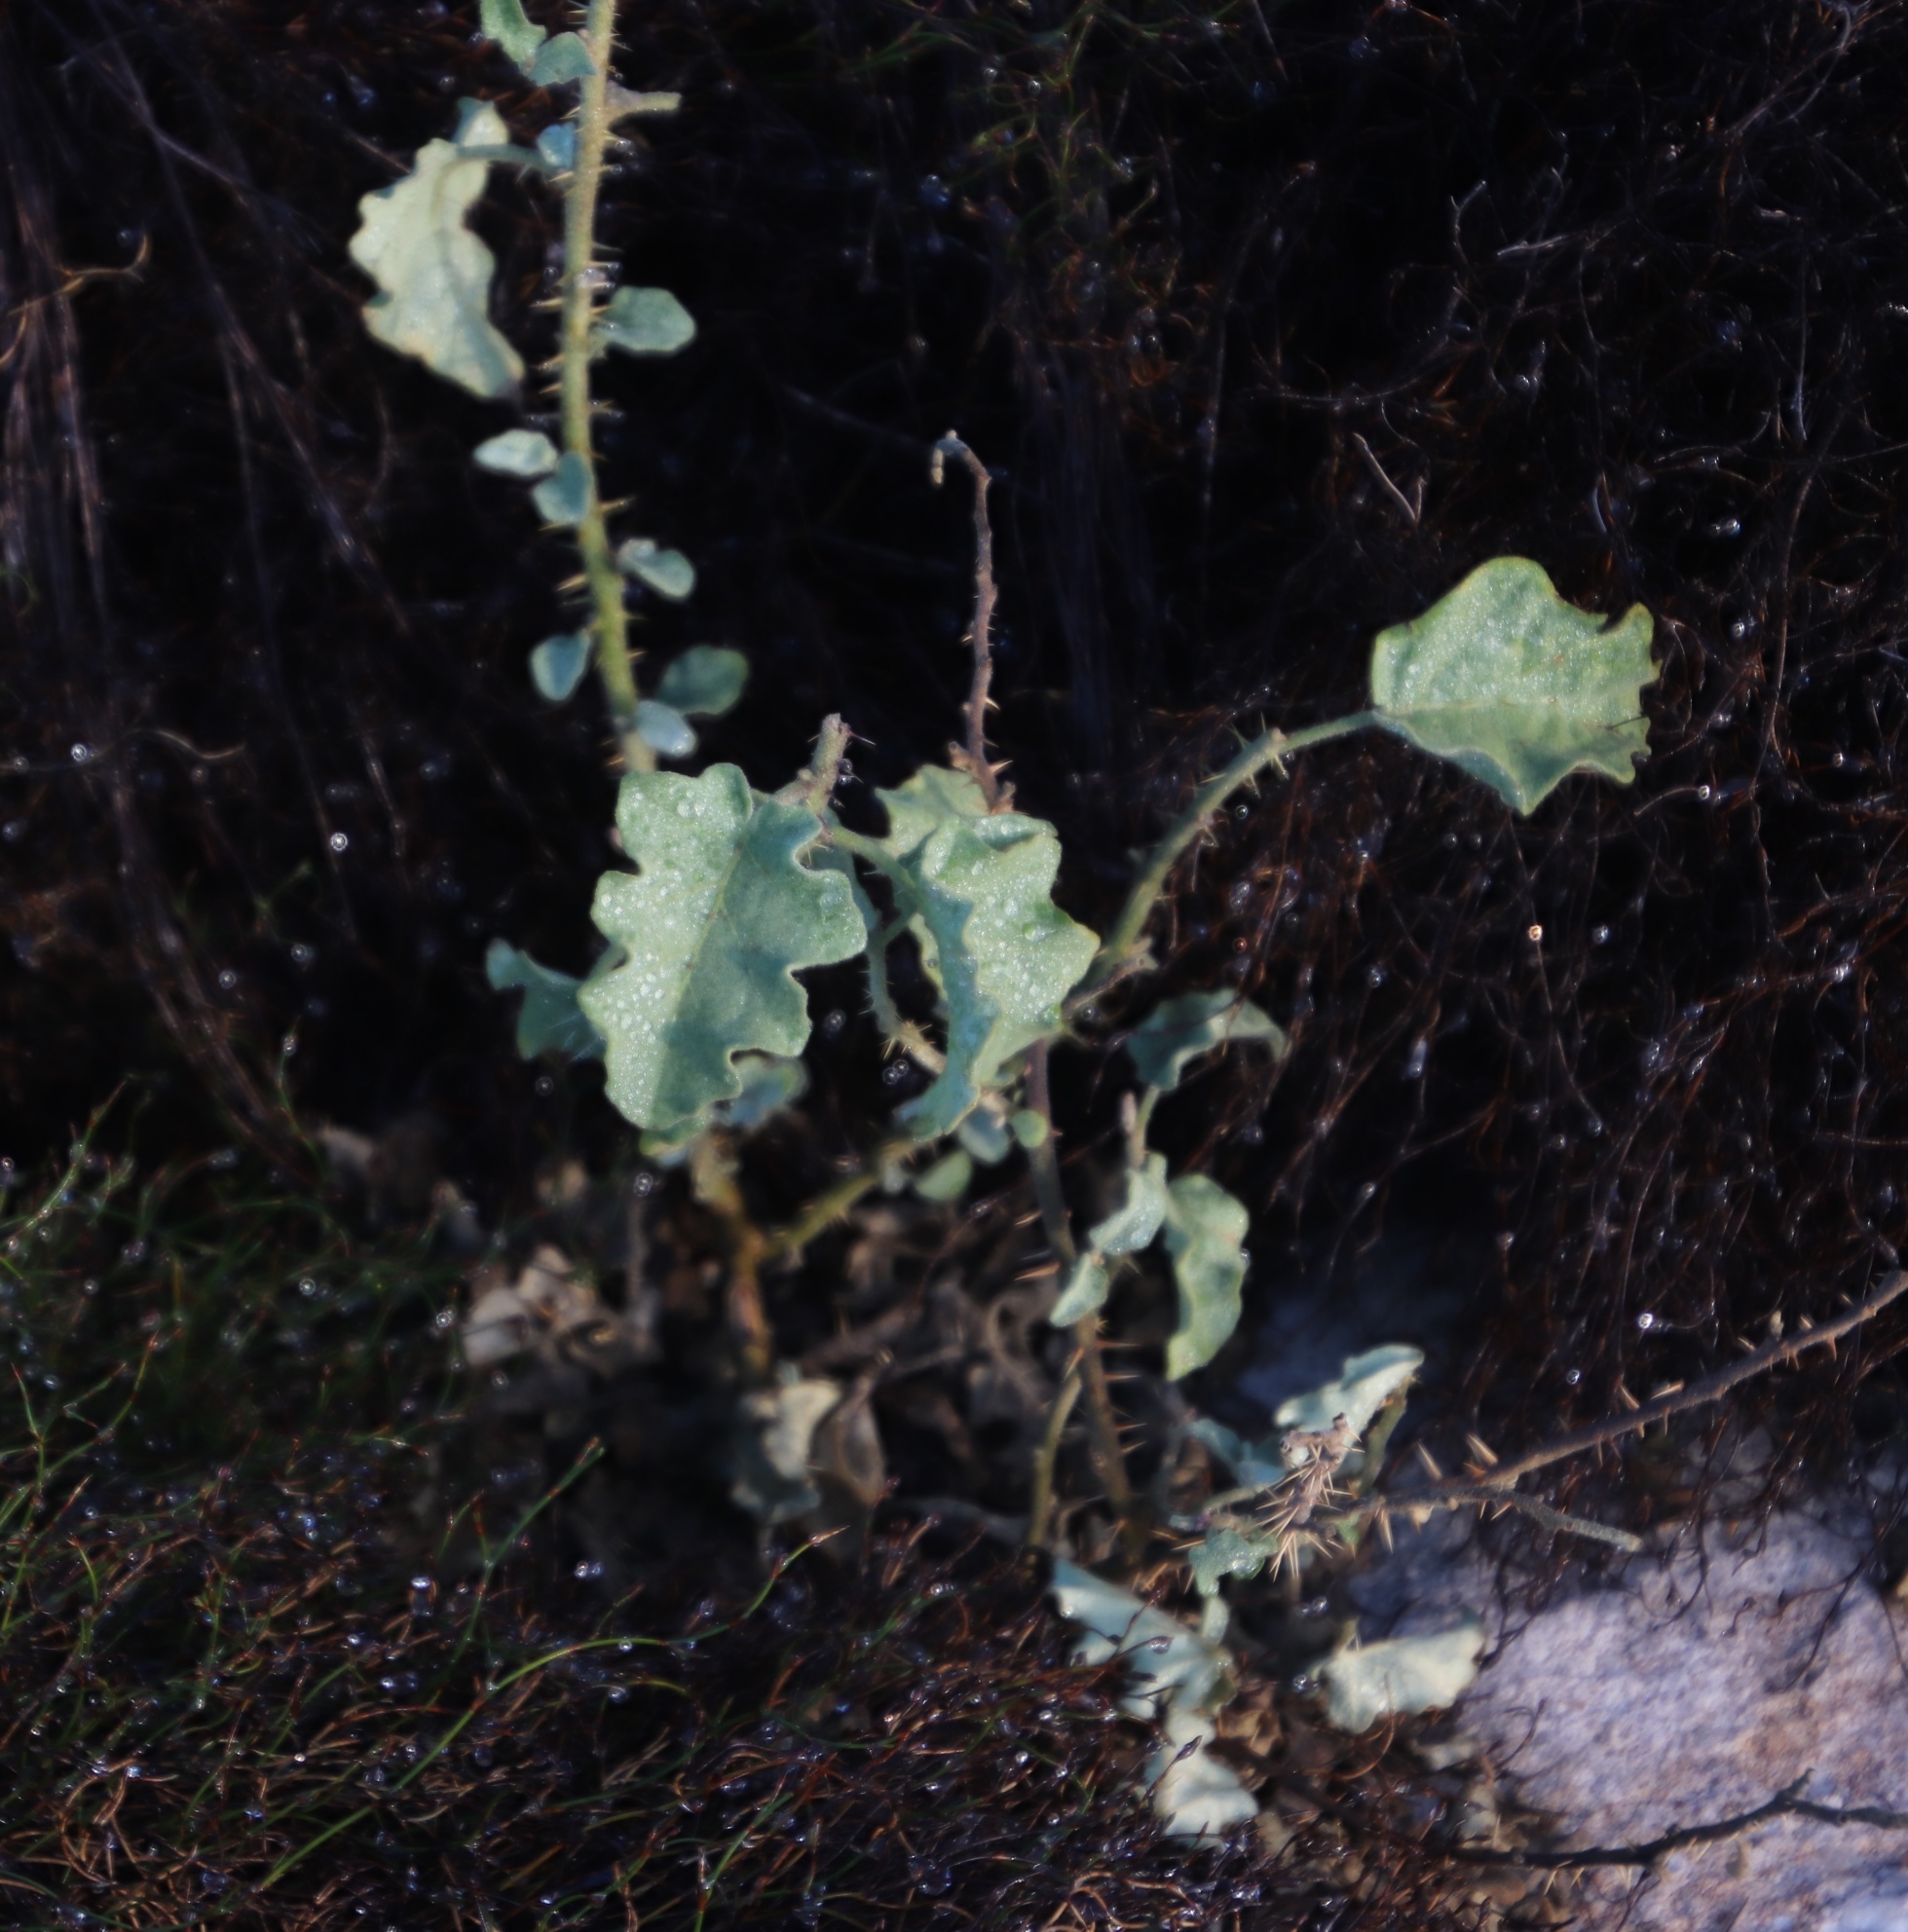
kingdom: Plantae
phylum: Tracheophyta
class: Magnoliopsida
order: Solanales
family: Solanaceae
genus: Solanum
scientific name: Solanum tomentosum
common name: Wild aubergine
